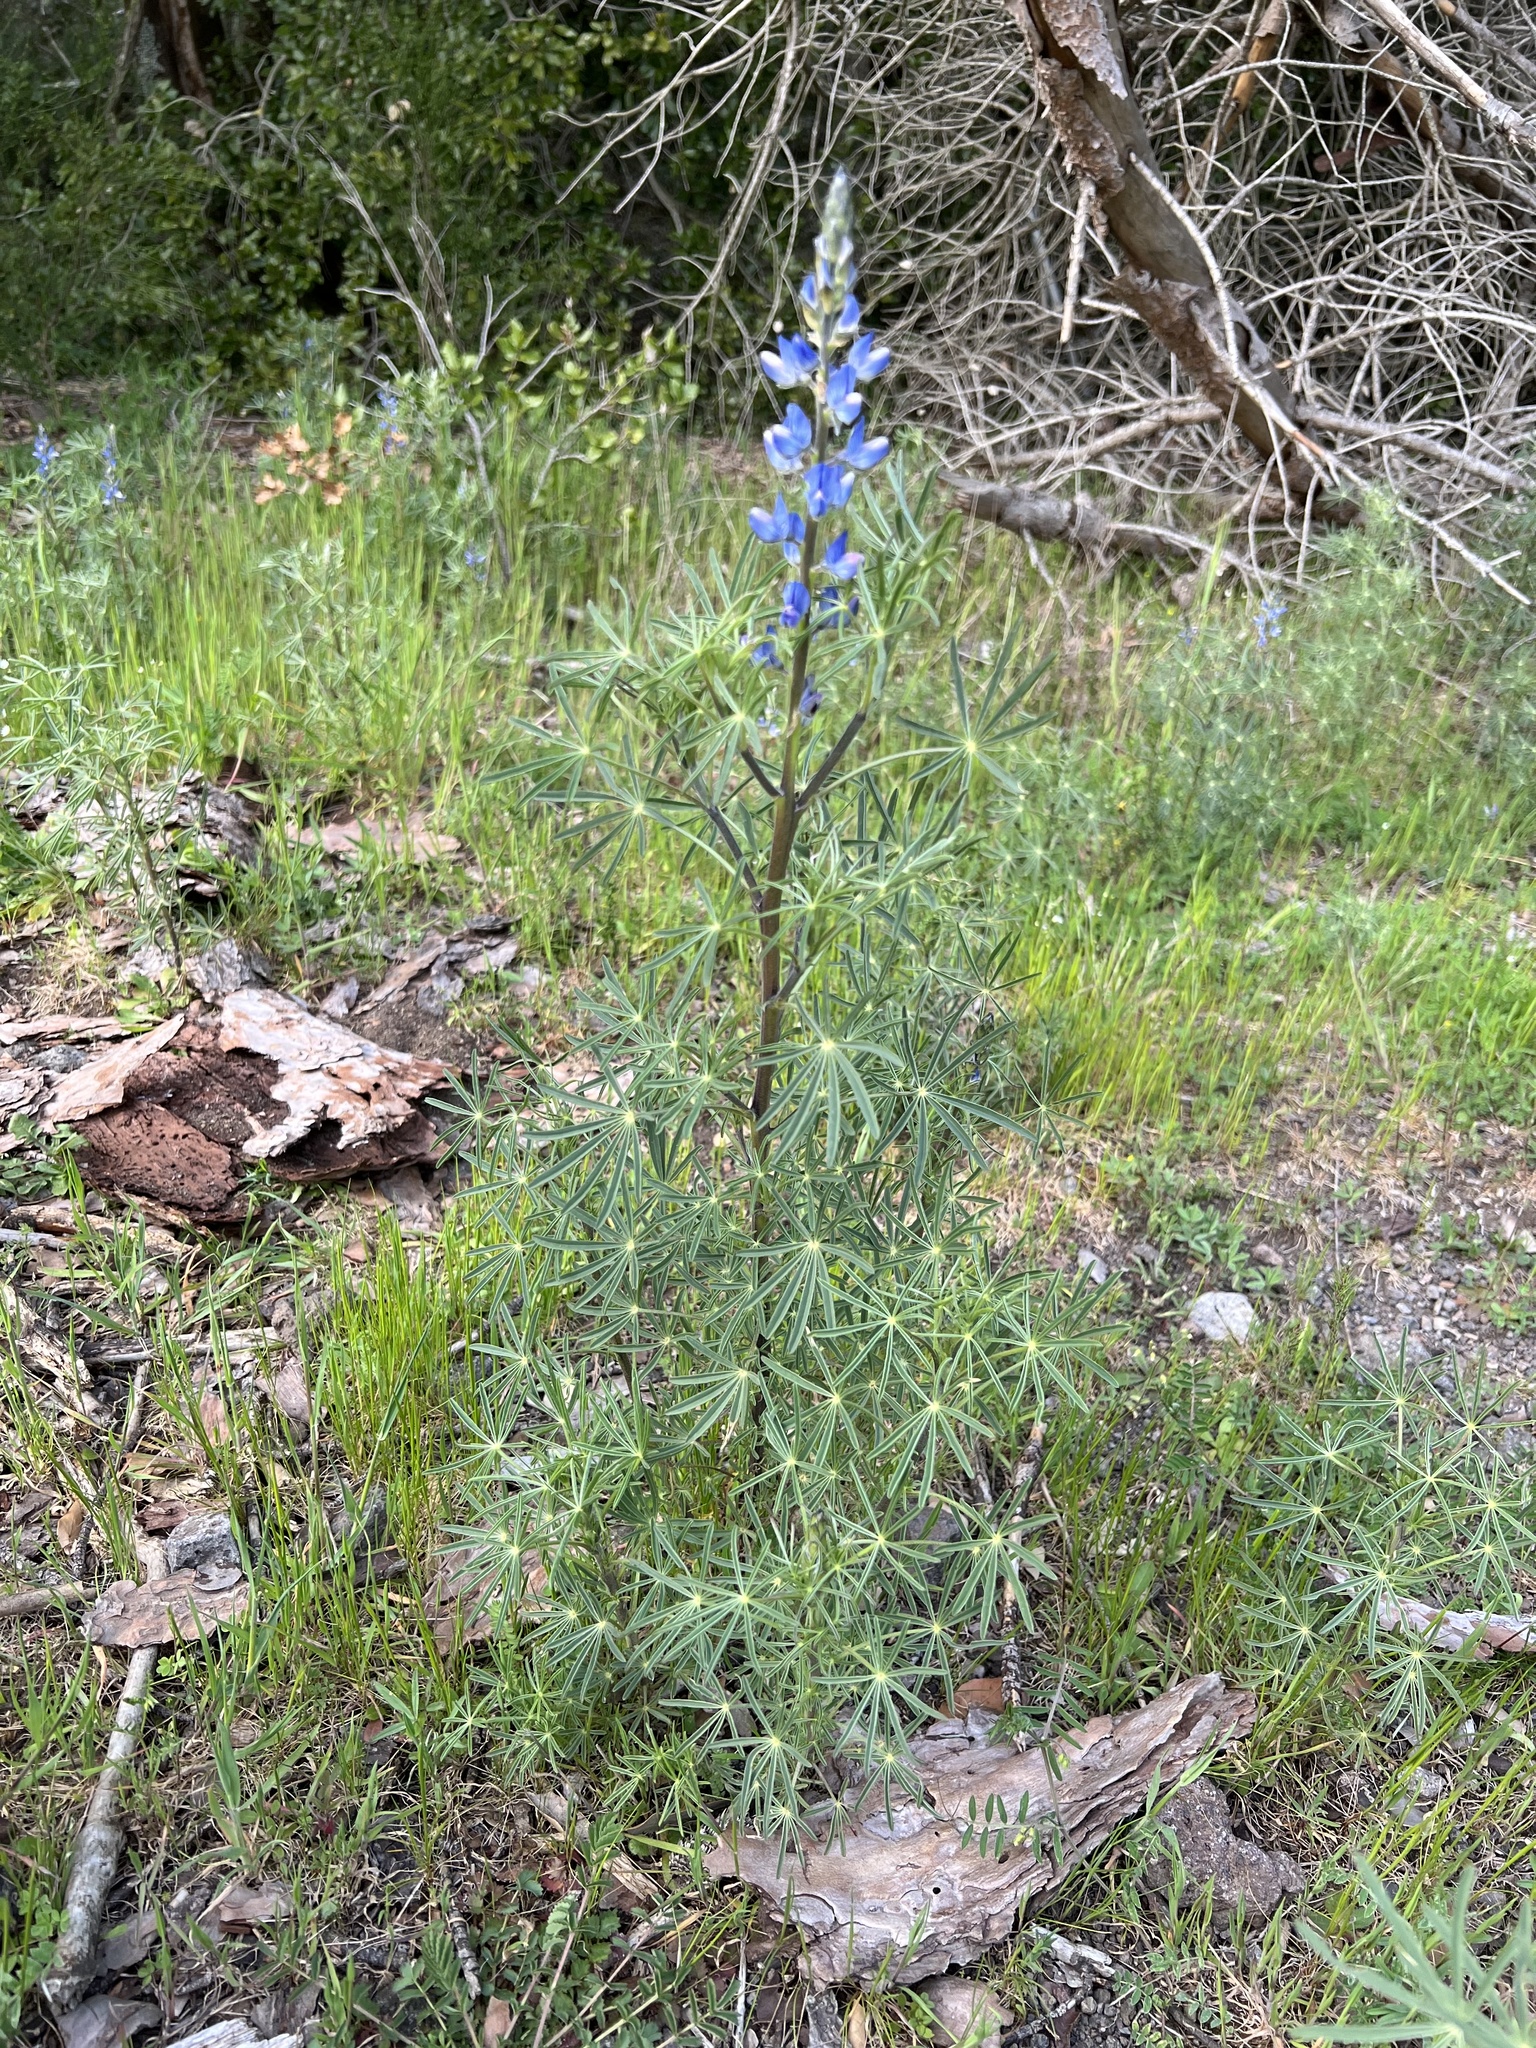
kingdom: Plantae
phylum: Tracheophyta
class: Magnoliopsida
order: Fabales
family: Fabaceae
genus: Lupinus
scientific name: Lupinus angustifolius
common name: Narrow-leaved lupin
